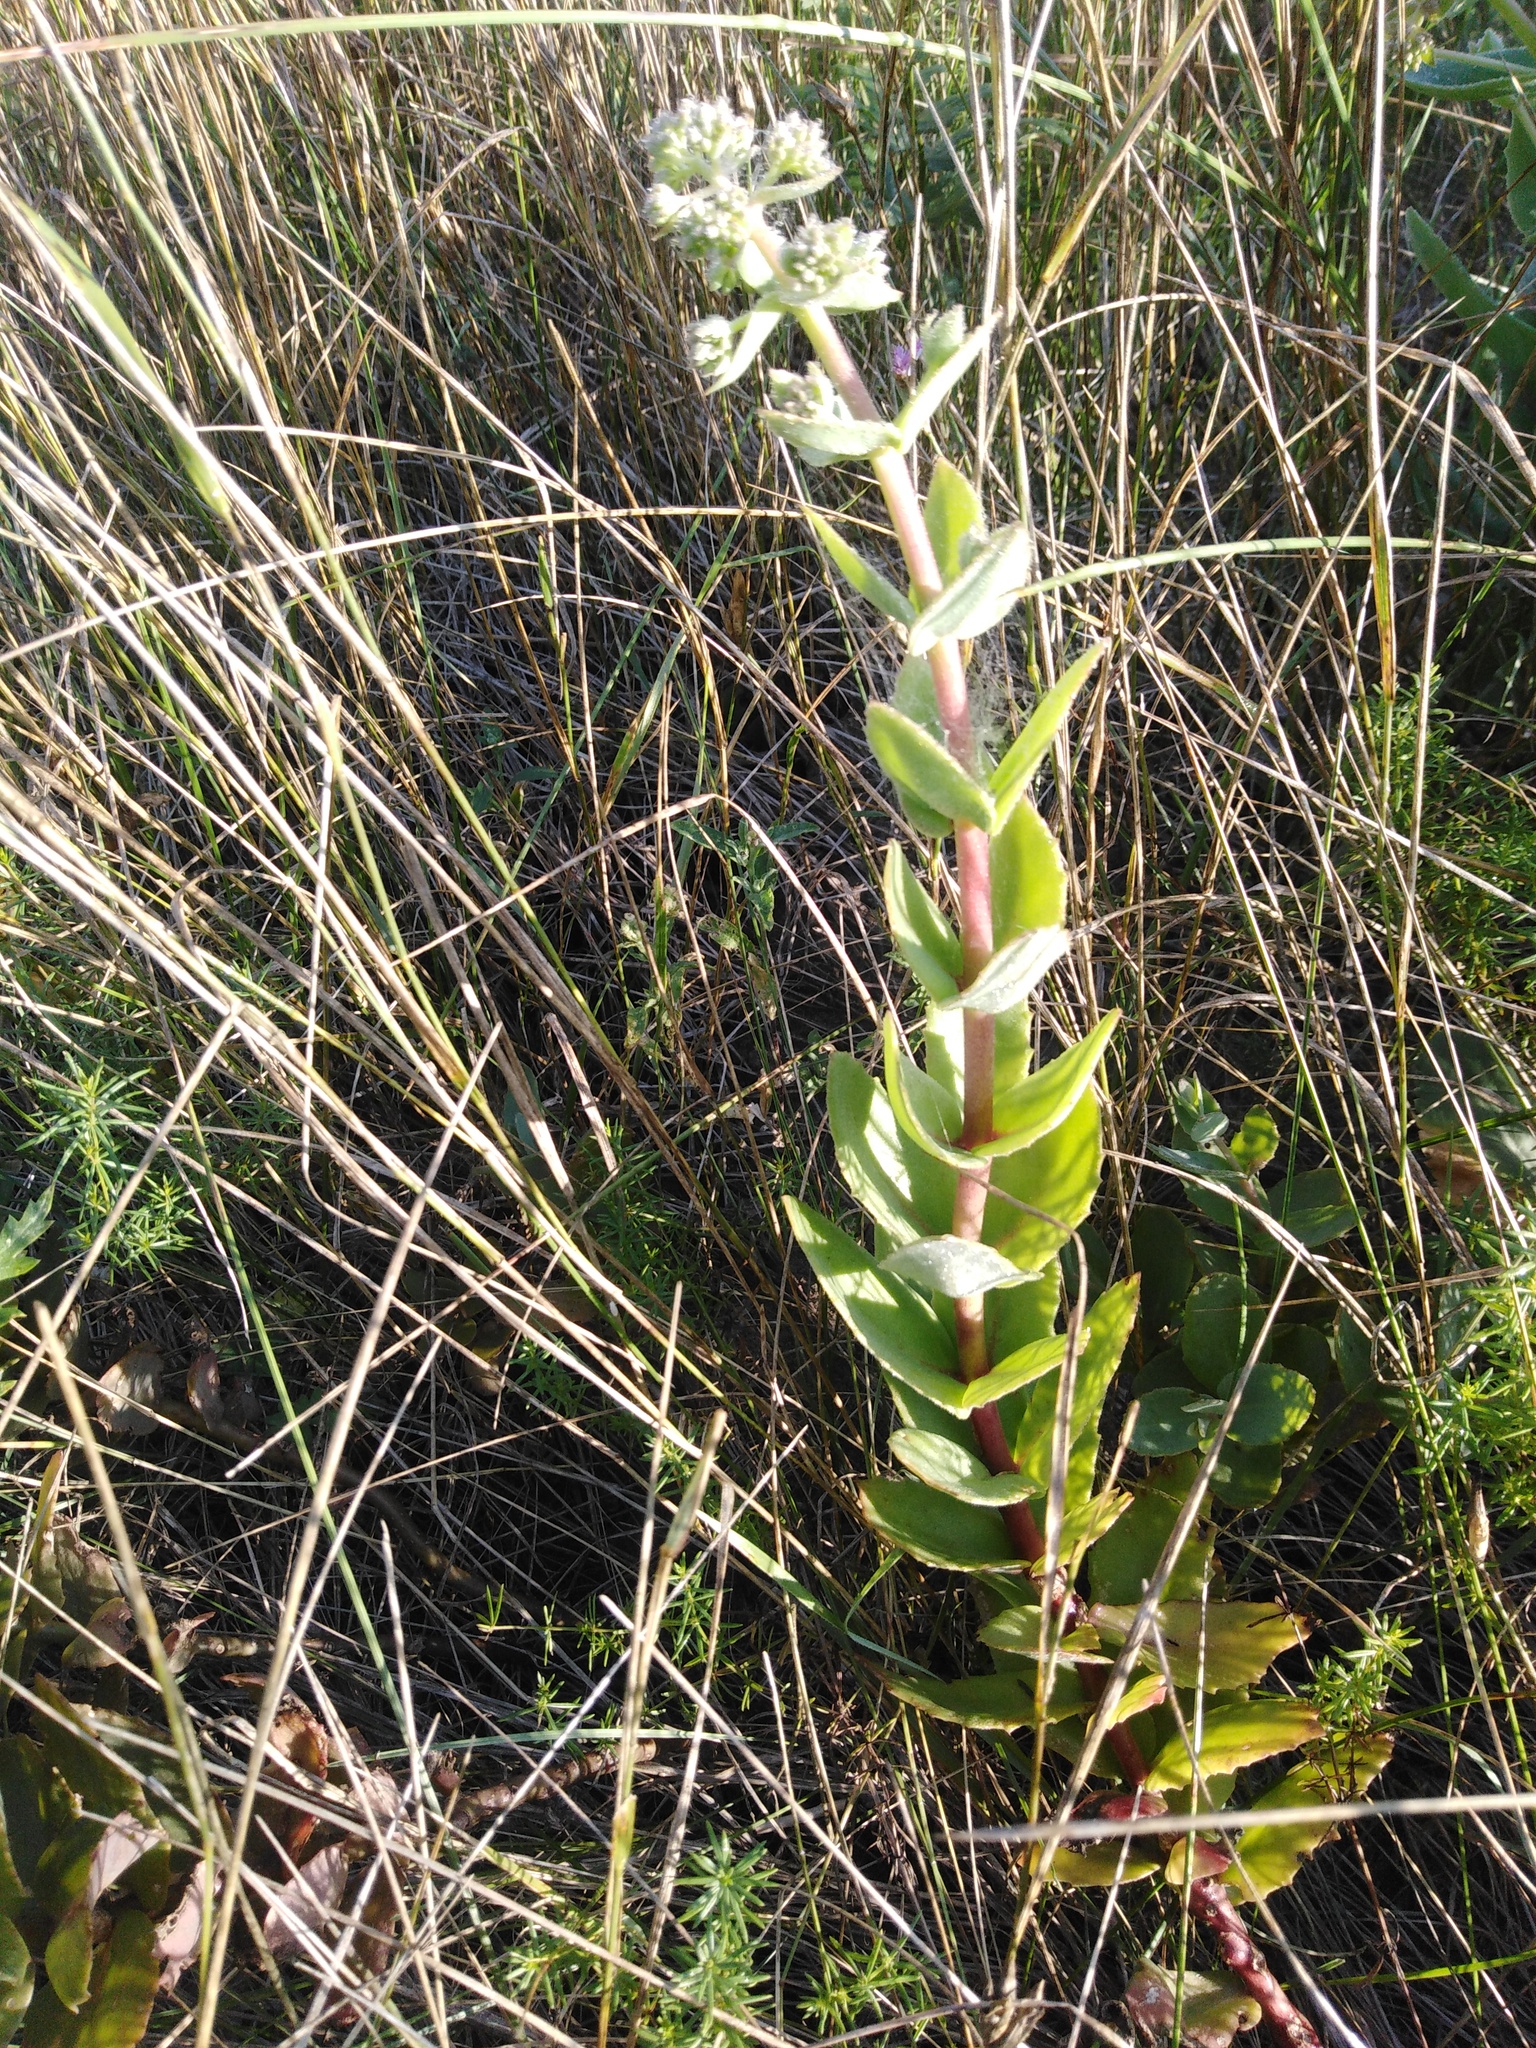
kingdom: Plantae
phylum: Tracheophyta
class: Magnoliopsida
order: Saxifragales
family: Crassulaceae
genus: Hylotelephium
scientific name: Hylotelephium maximum
